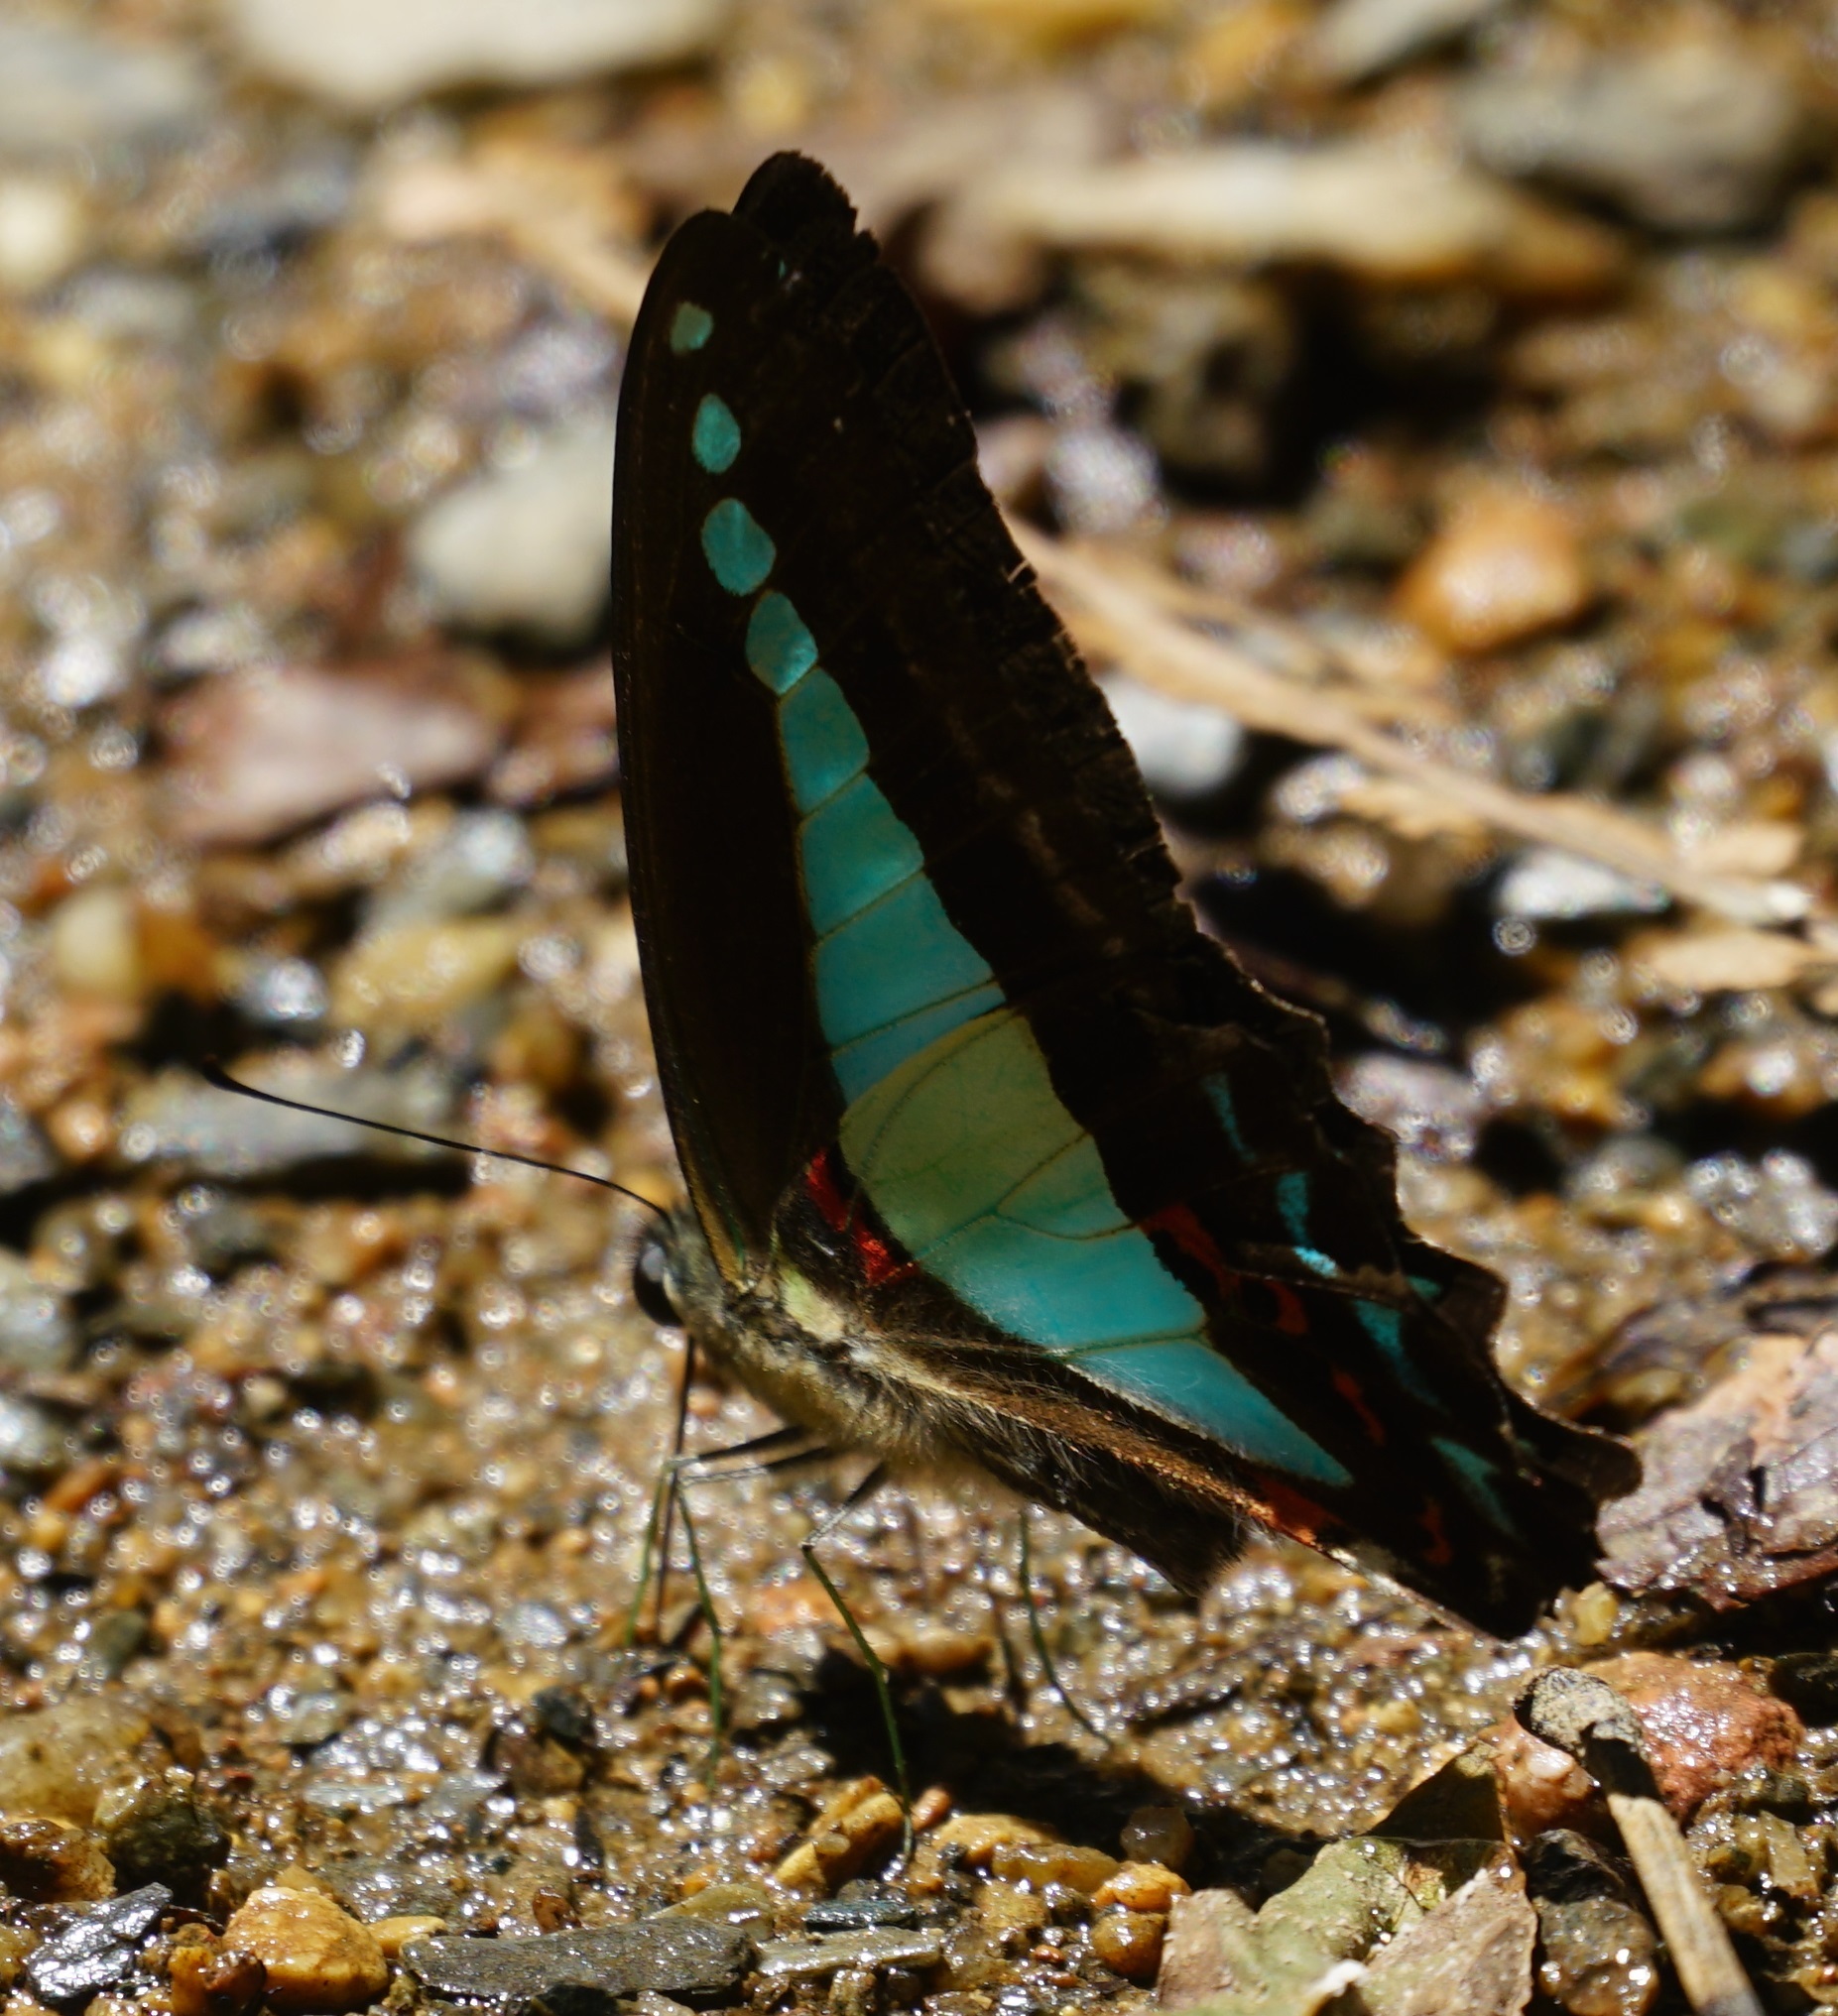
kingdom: Animalia
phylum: Arthropoda
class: Insecta
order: Lepidoptera
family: Papilionidae
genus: Graphium
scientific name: Graphium
